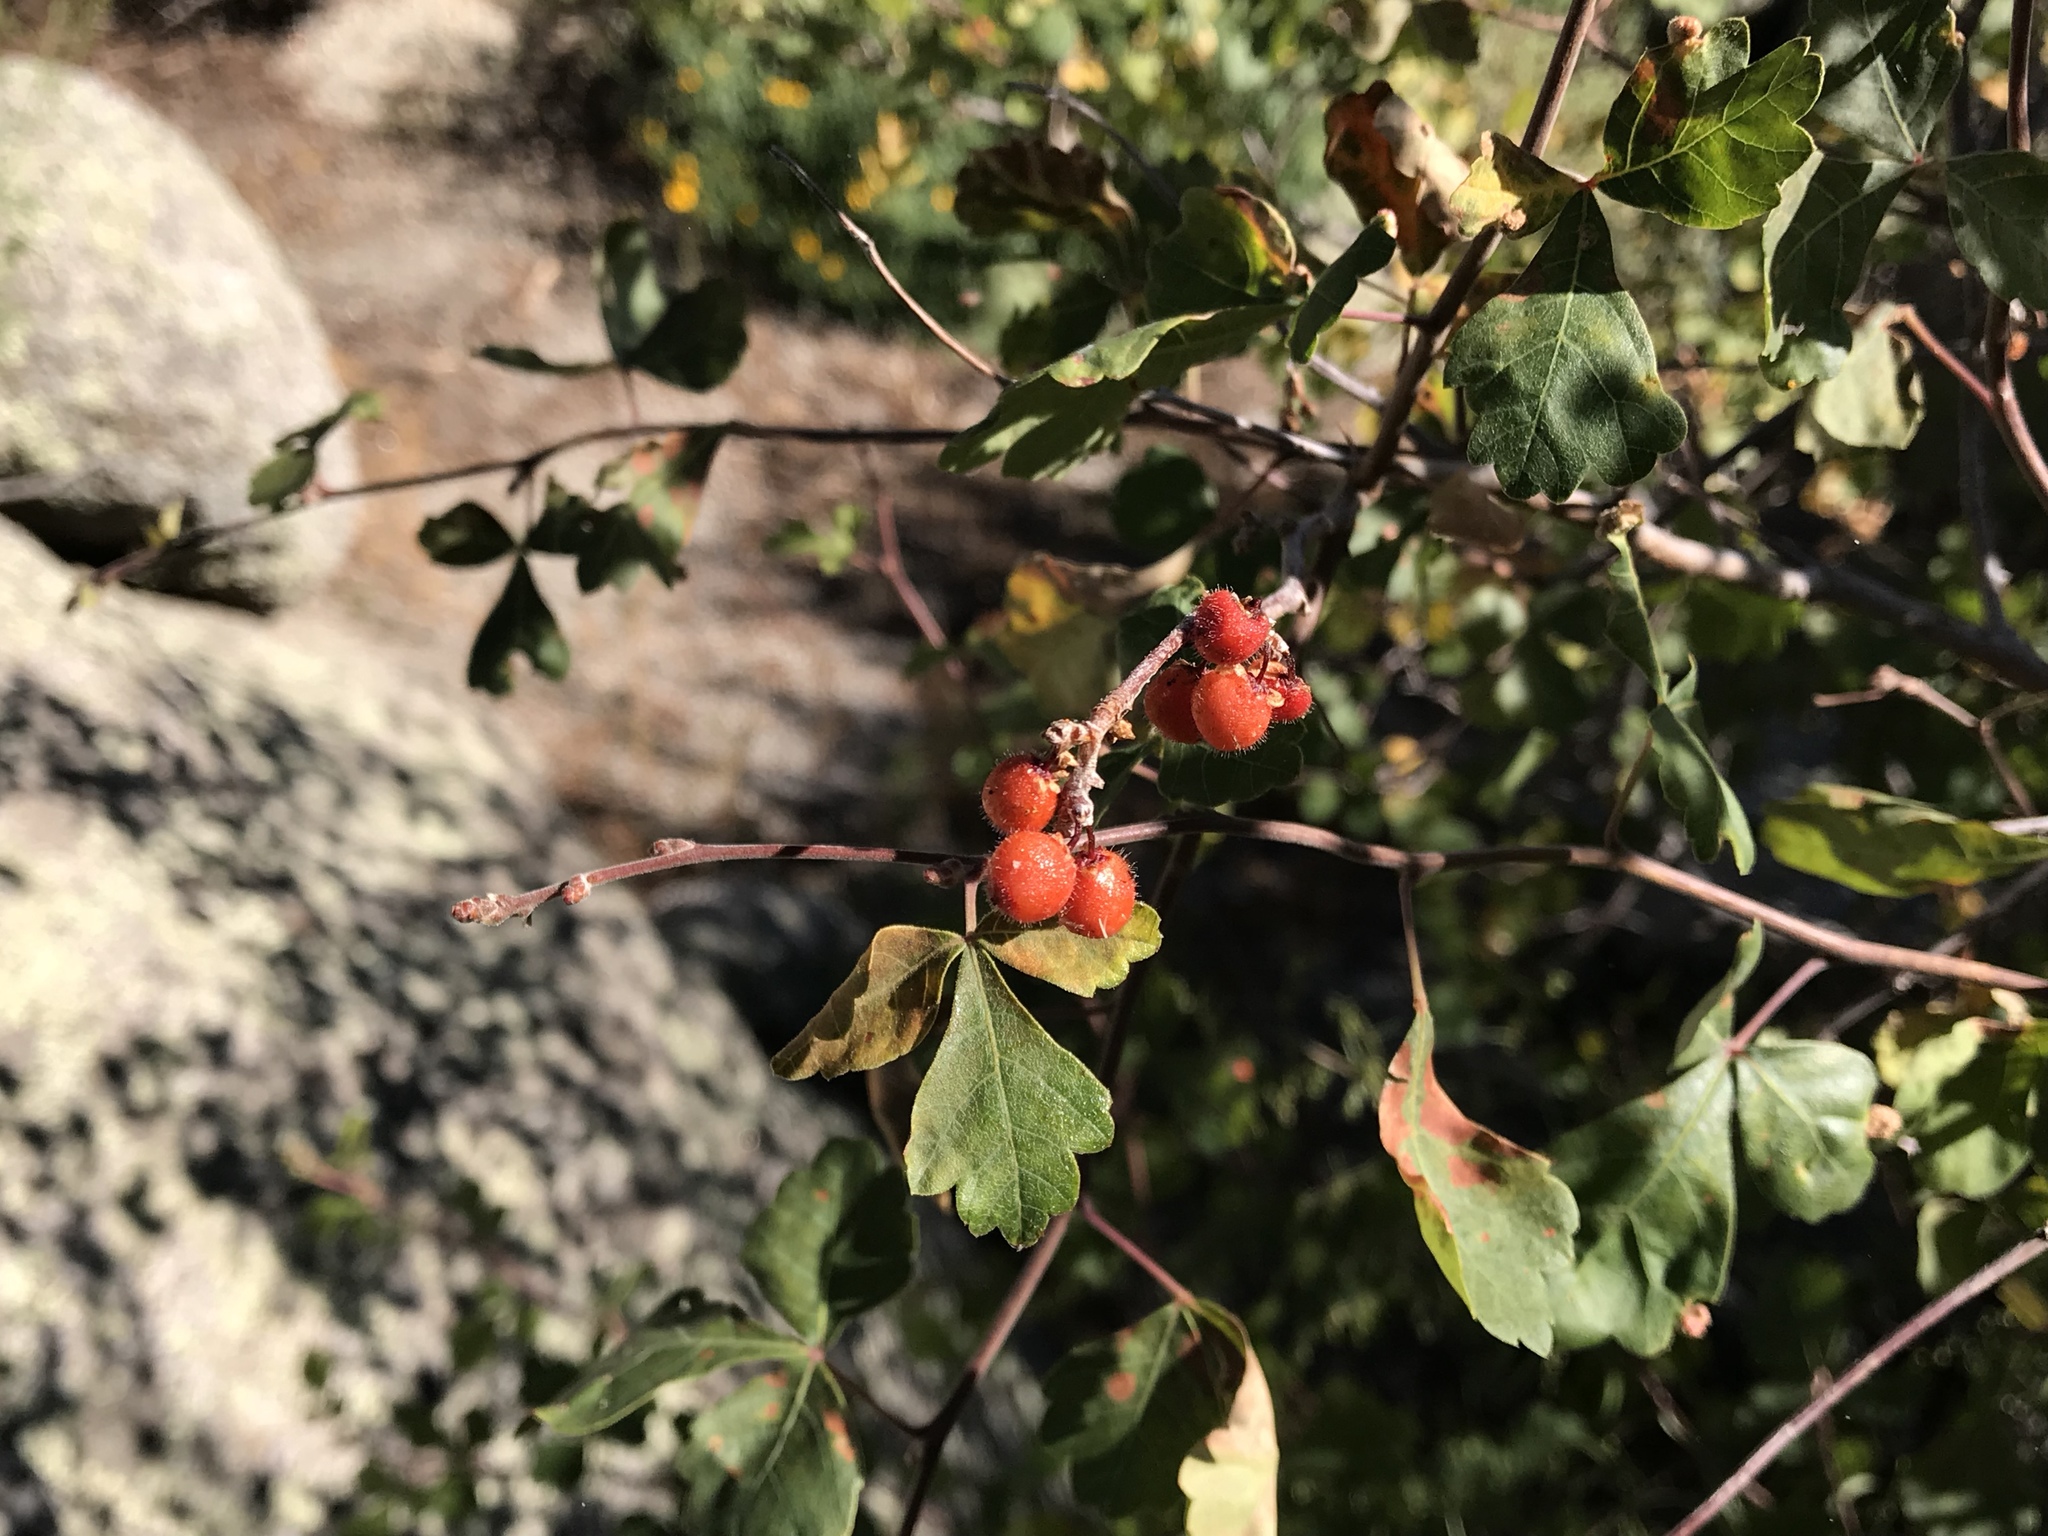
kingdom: Plantae
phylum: Tracheophyta
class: Magnoliopsida
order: Sapindales
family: Anacardiaceae
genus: Rhus
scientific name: Rhus aromatica
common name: Aromatic sumac
